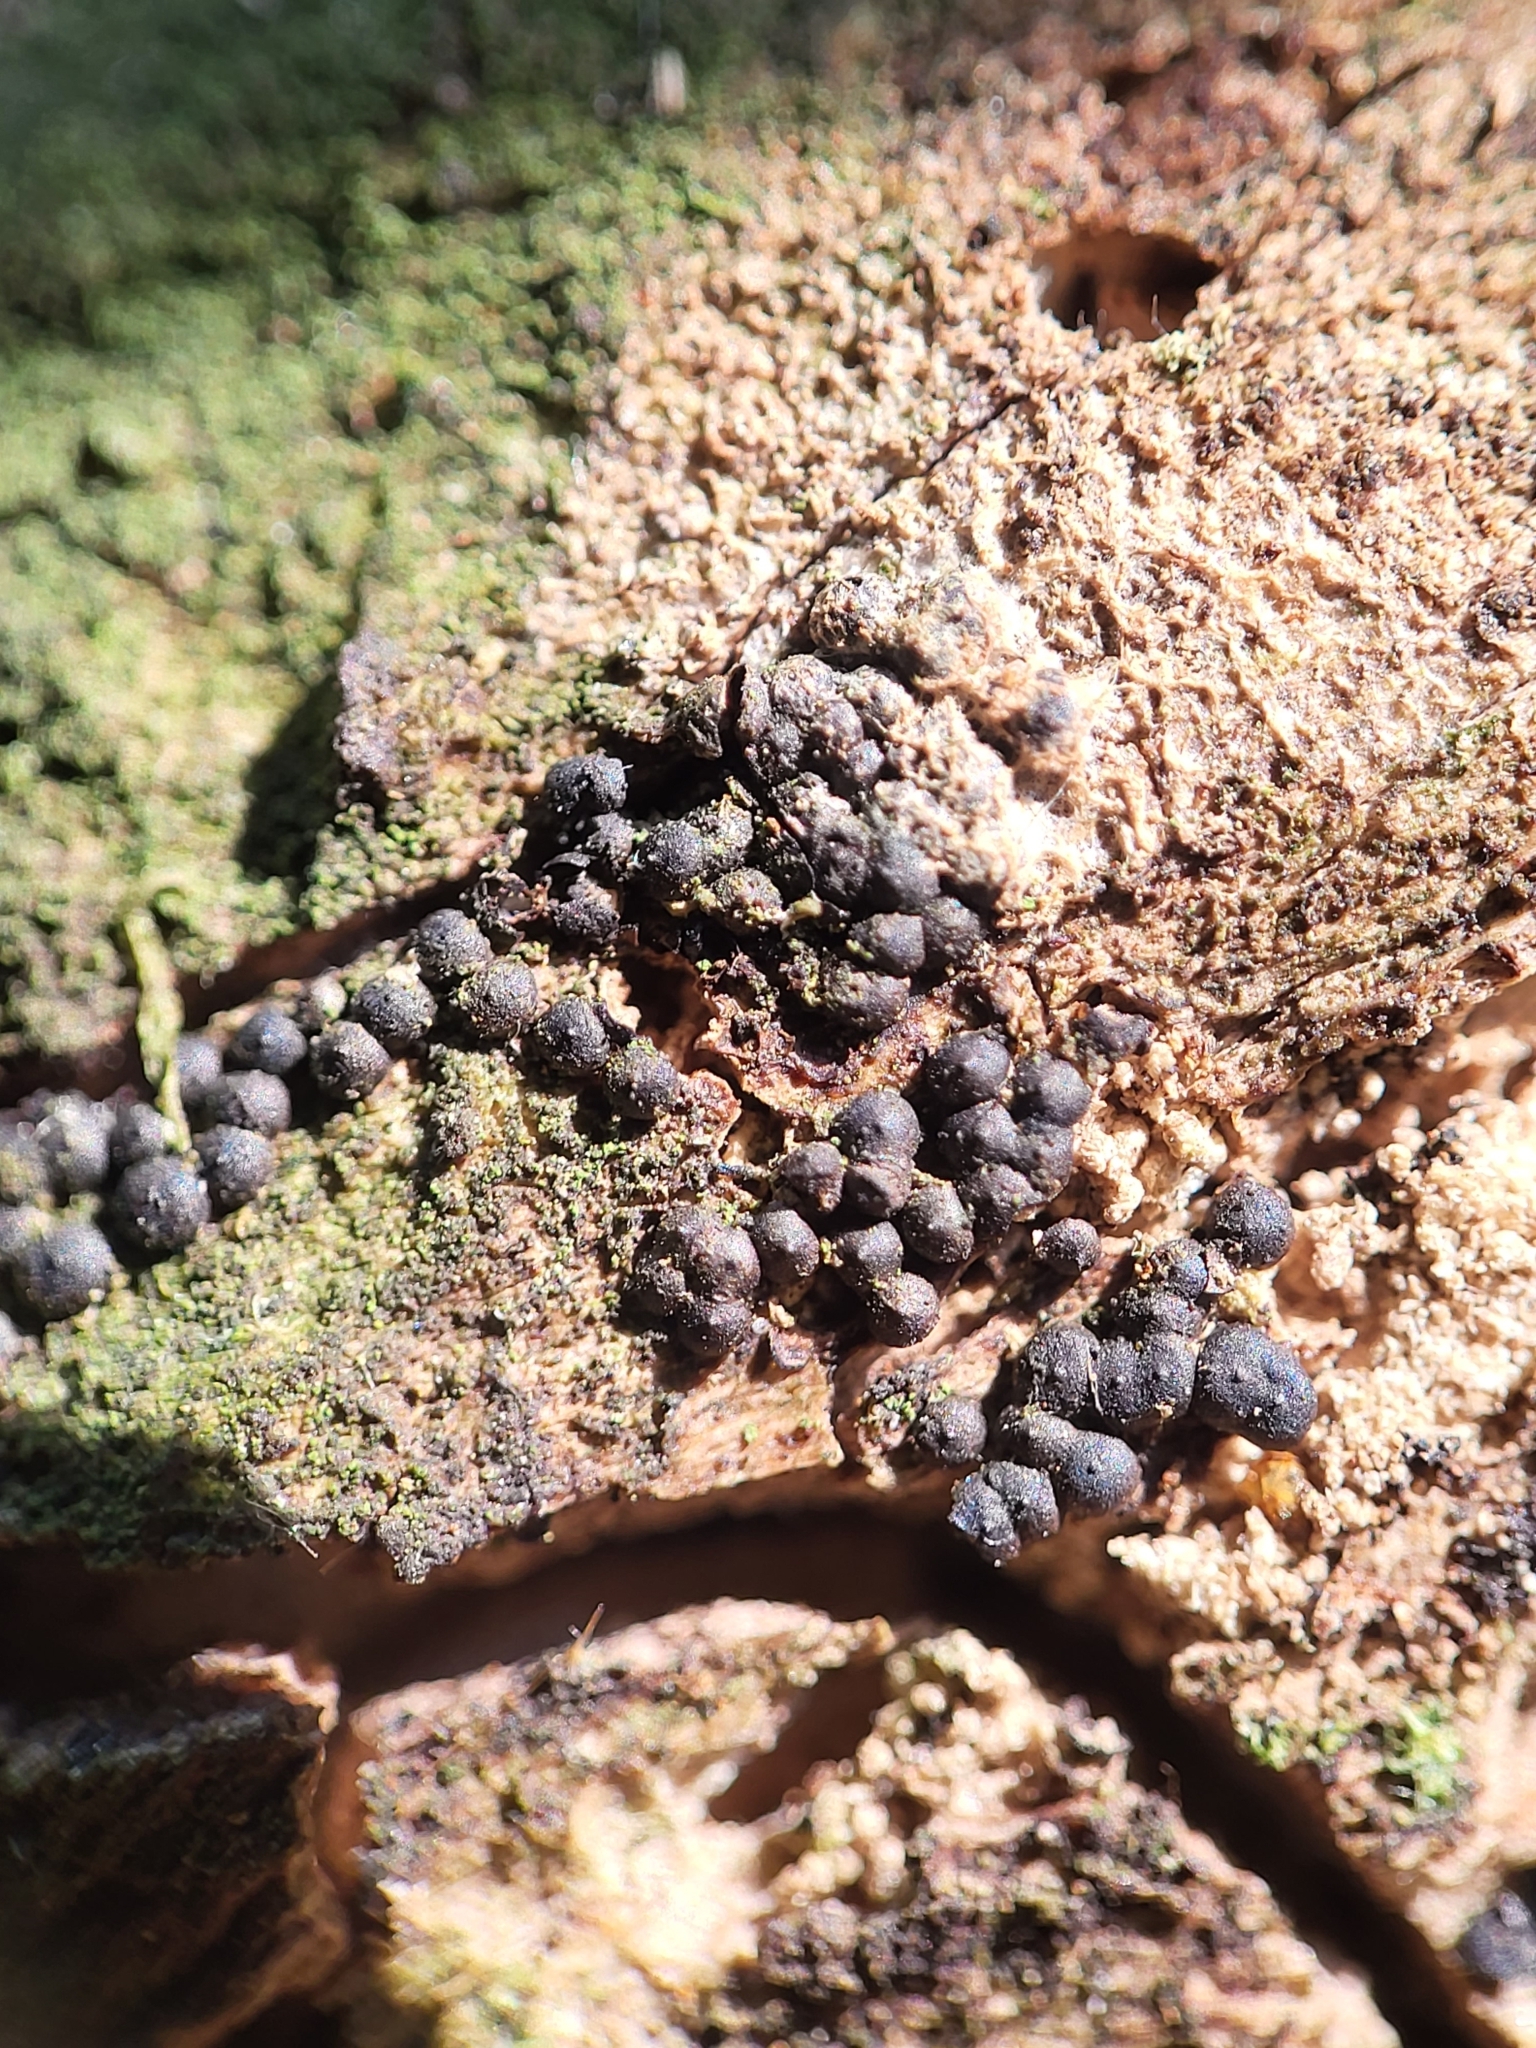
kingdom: Fungi
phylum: Ascomycota
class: Sordariomycetes
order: Xylariales
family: Xylariaceae
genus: Rosellinia
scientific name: Rosellinia corticium
